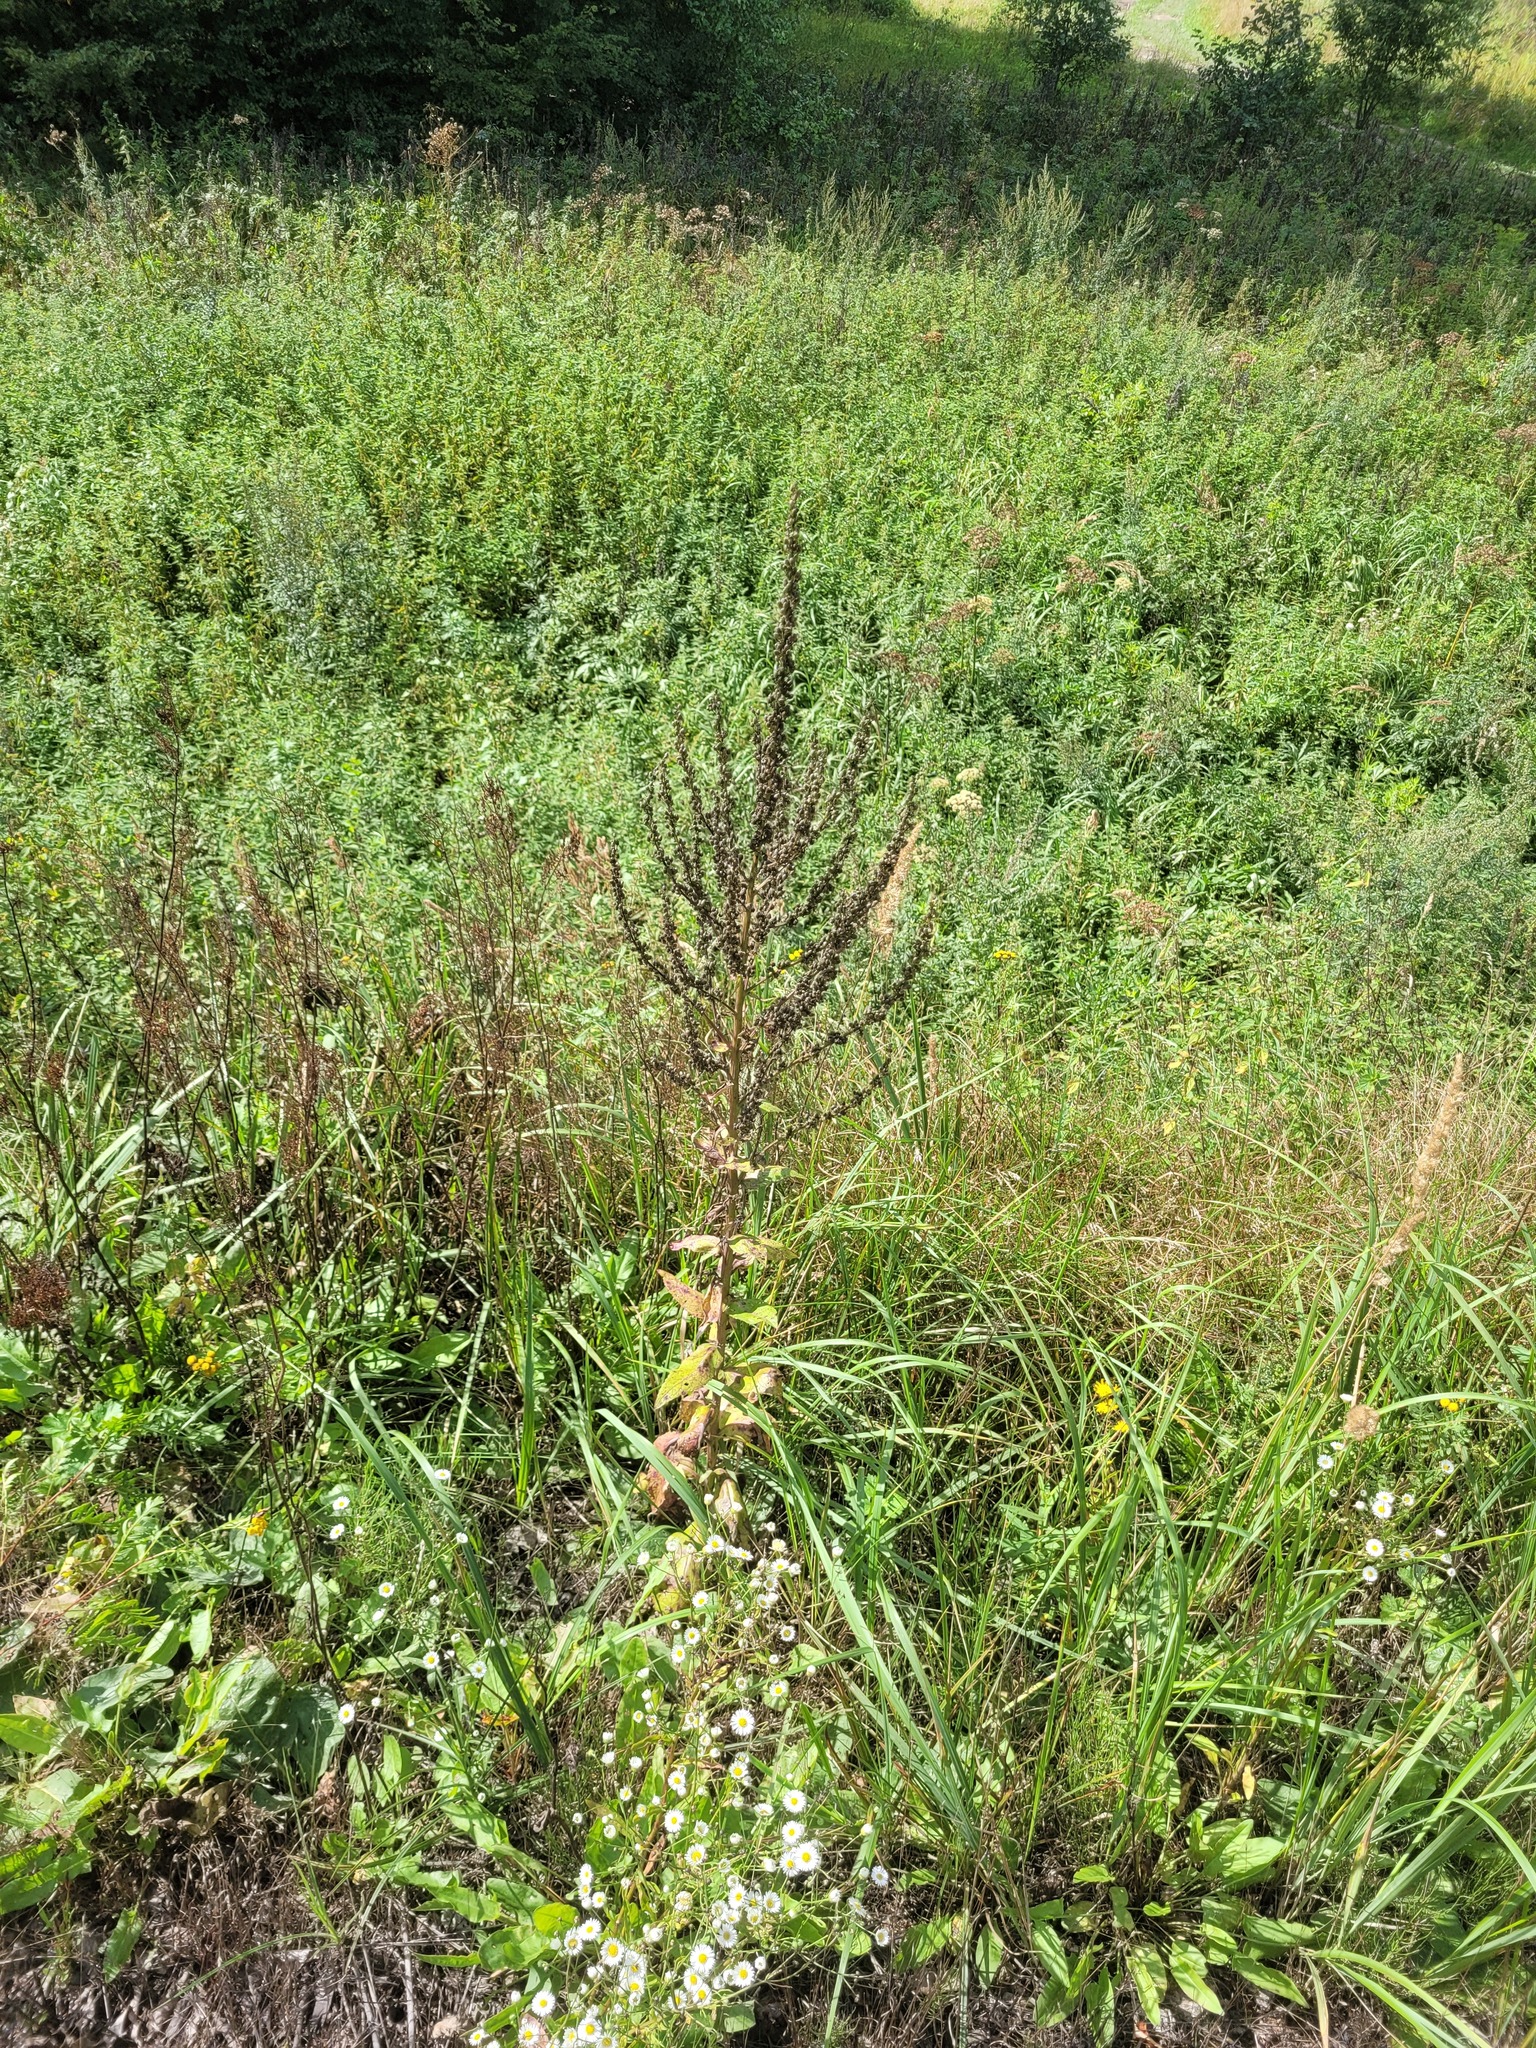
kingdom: Plantae
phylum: Tracheophyta
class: Magnoliopsida
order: Lamiales
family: Scrophulariaceae
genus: Verbascum
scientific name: Verbascum lychnitis
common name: White mullein
